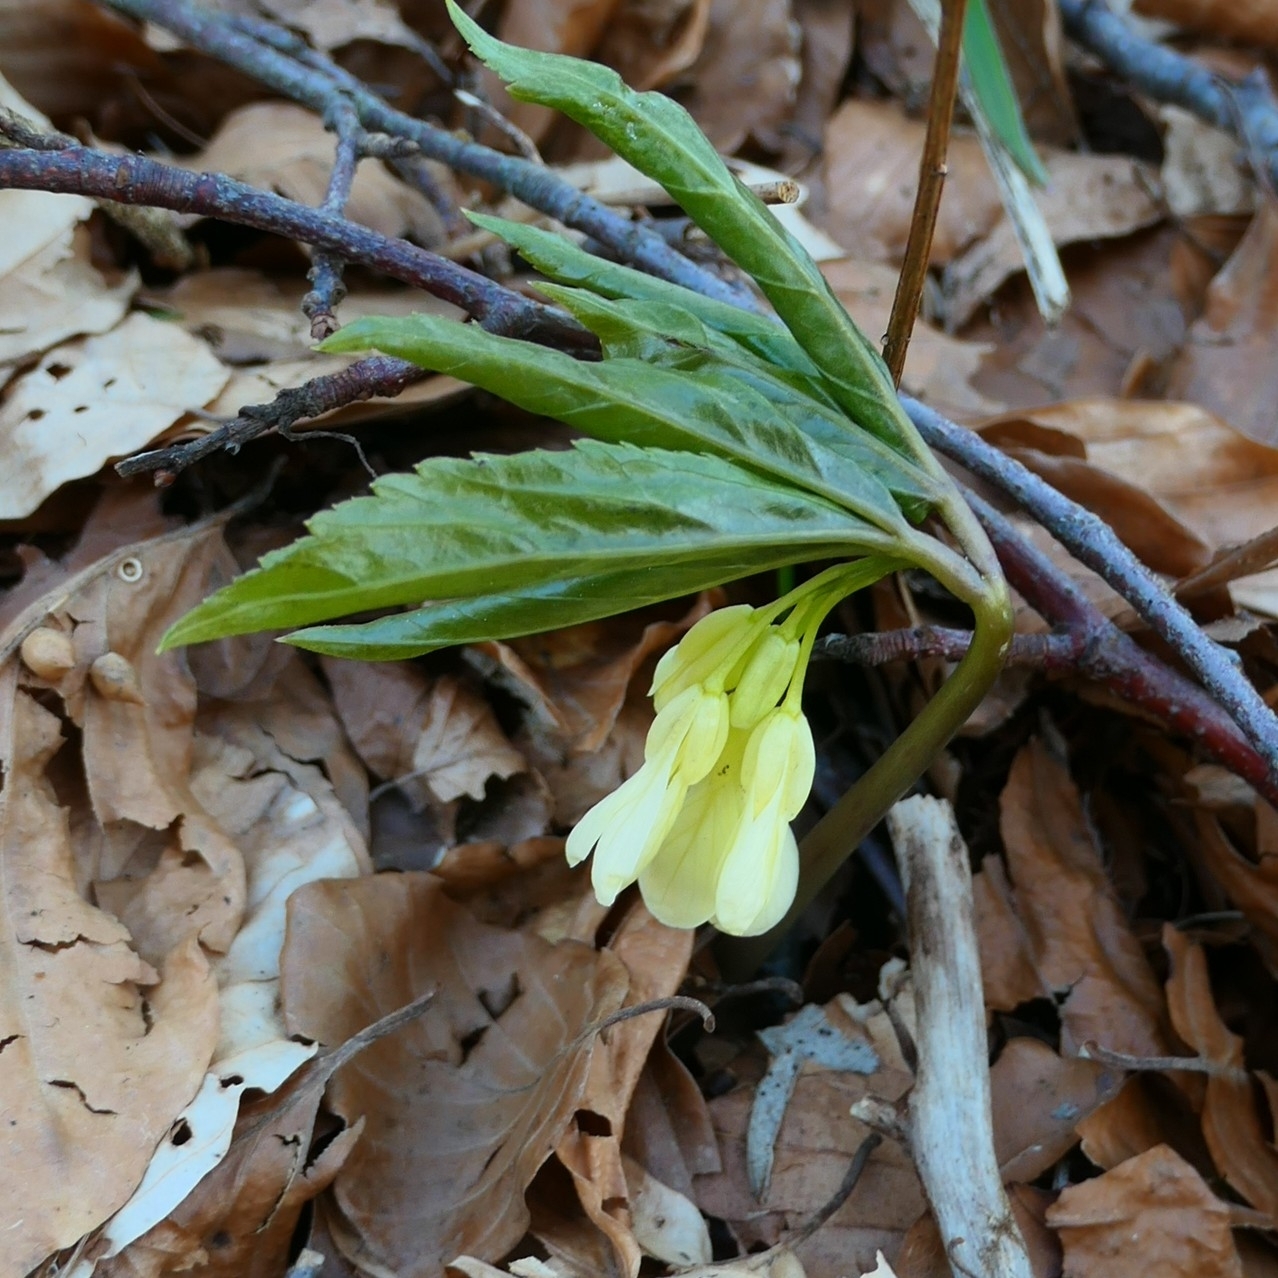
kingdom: Plantae
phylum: Tracheophyta
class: Magnoliopsida
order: Brassicales
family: Brassicaceae
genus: Cardamine
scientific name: Cardamine enneaphyllos
